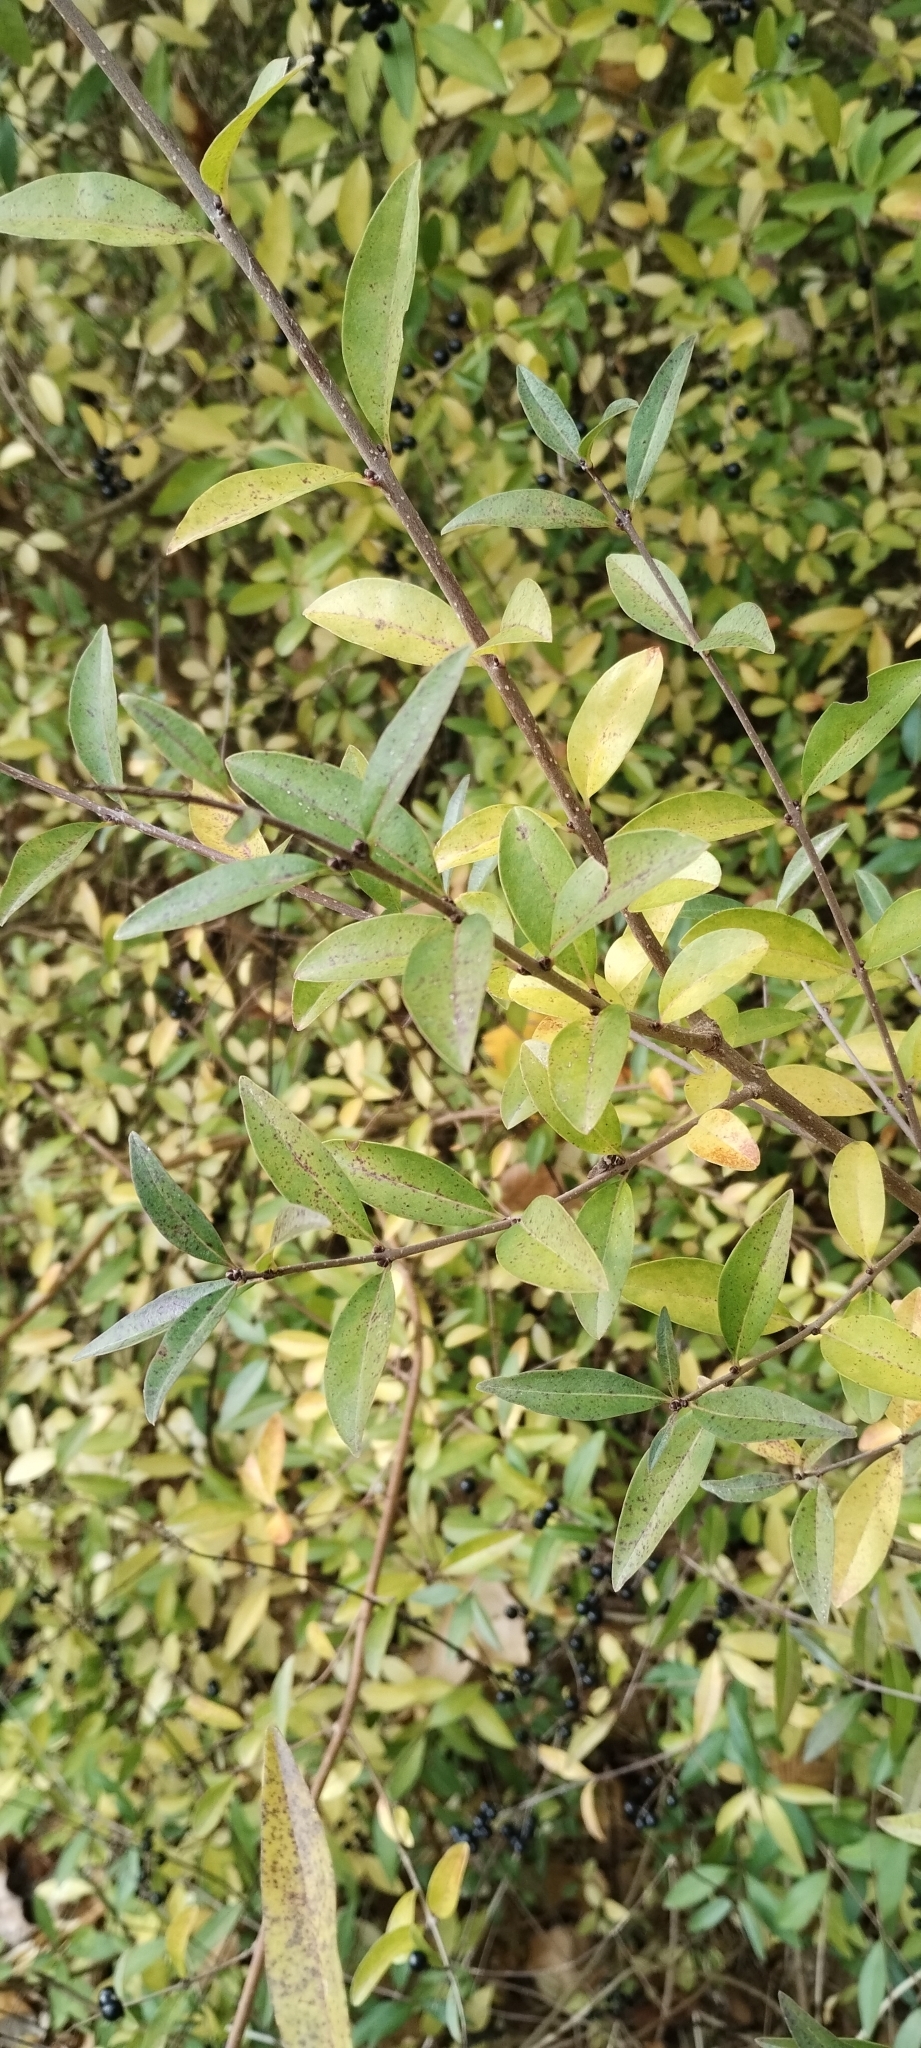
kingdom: Plantae
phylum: Tracheophyta
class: Magnoliopsida
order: Lamiales
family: Oleaceae
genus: Ligustrum
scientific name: Ligustrum vulgare
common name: Wild privet
